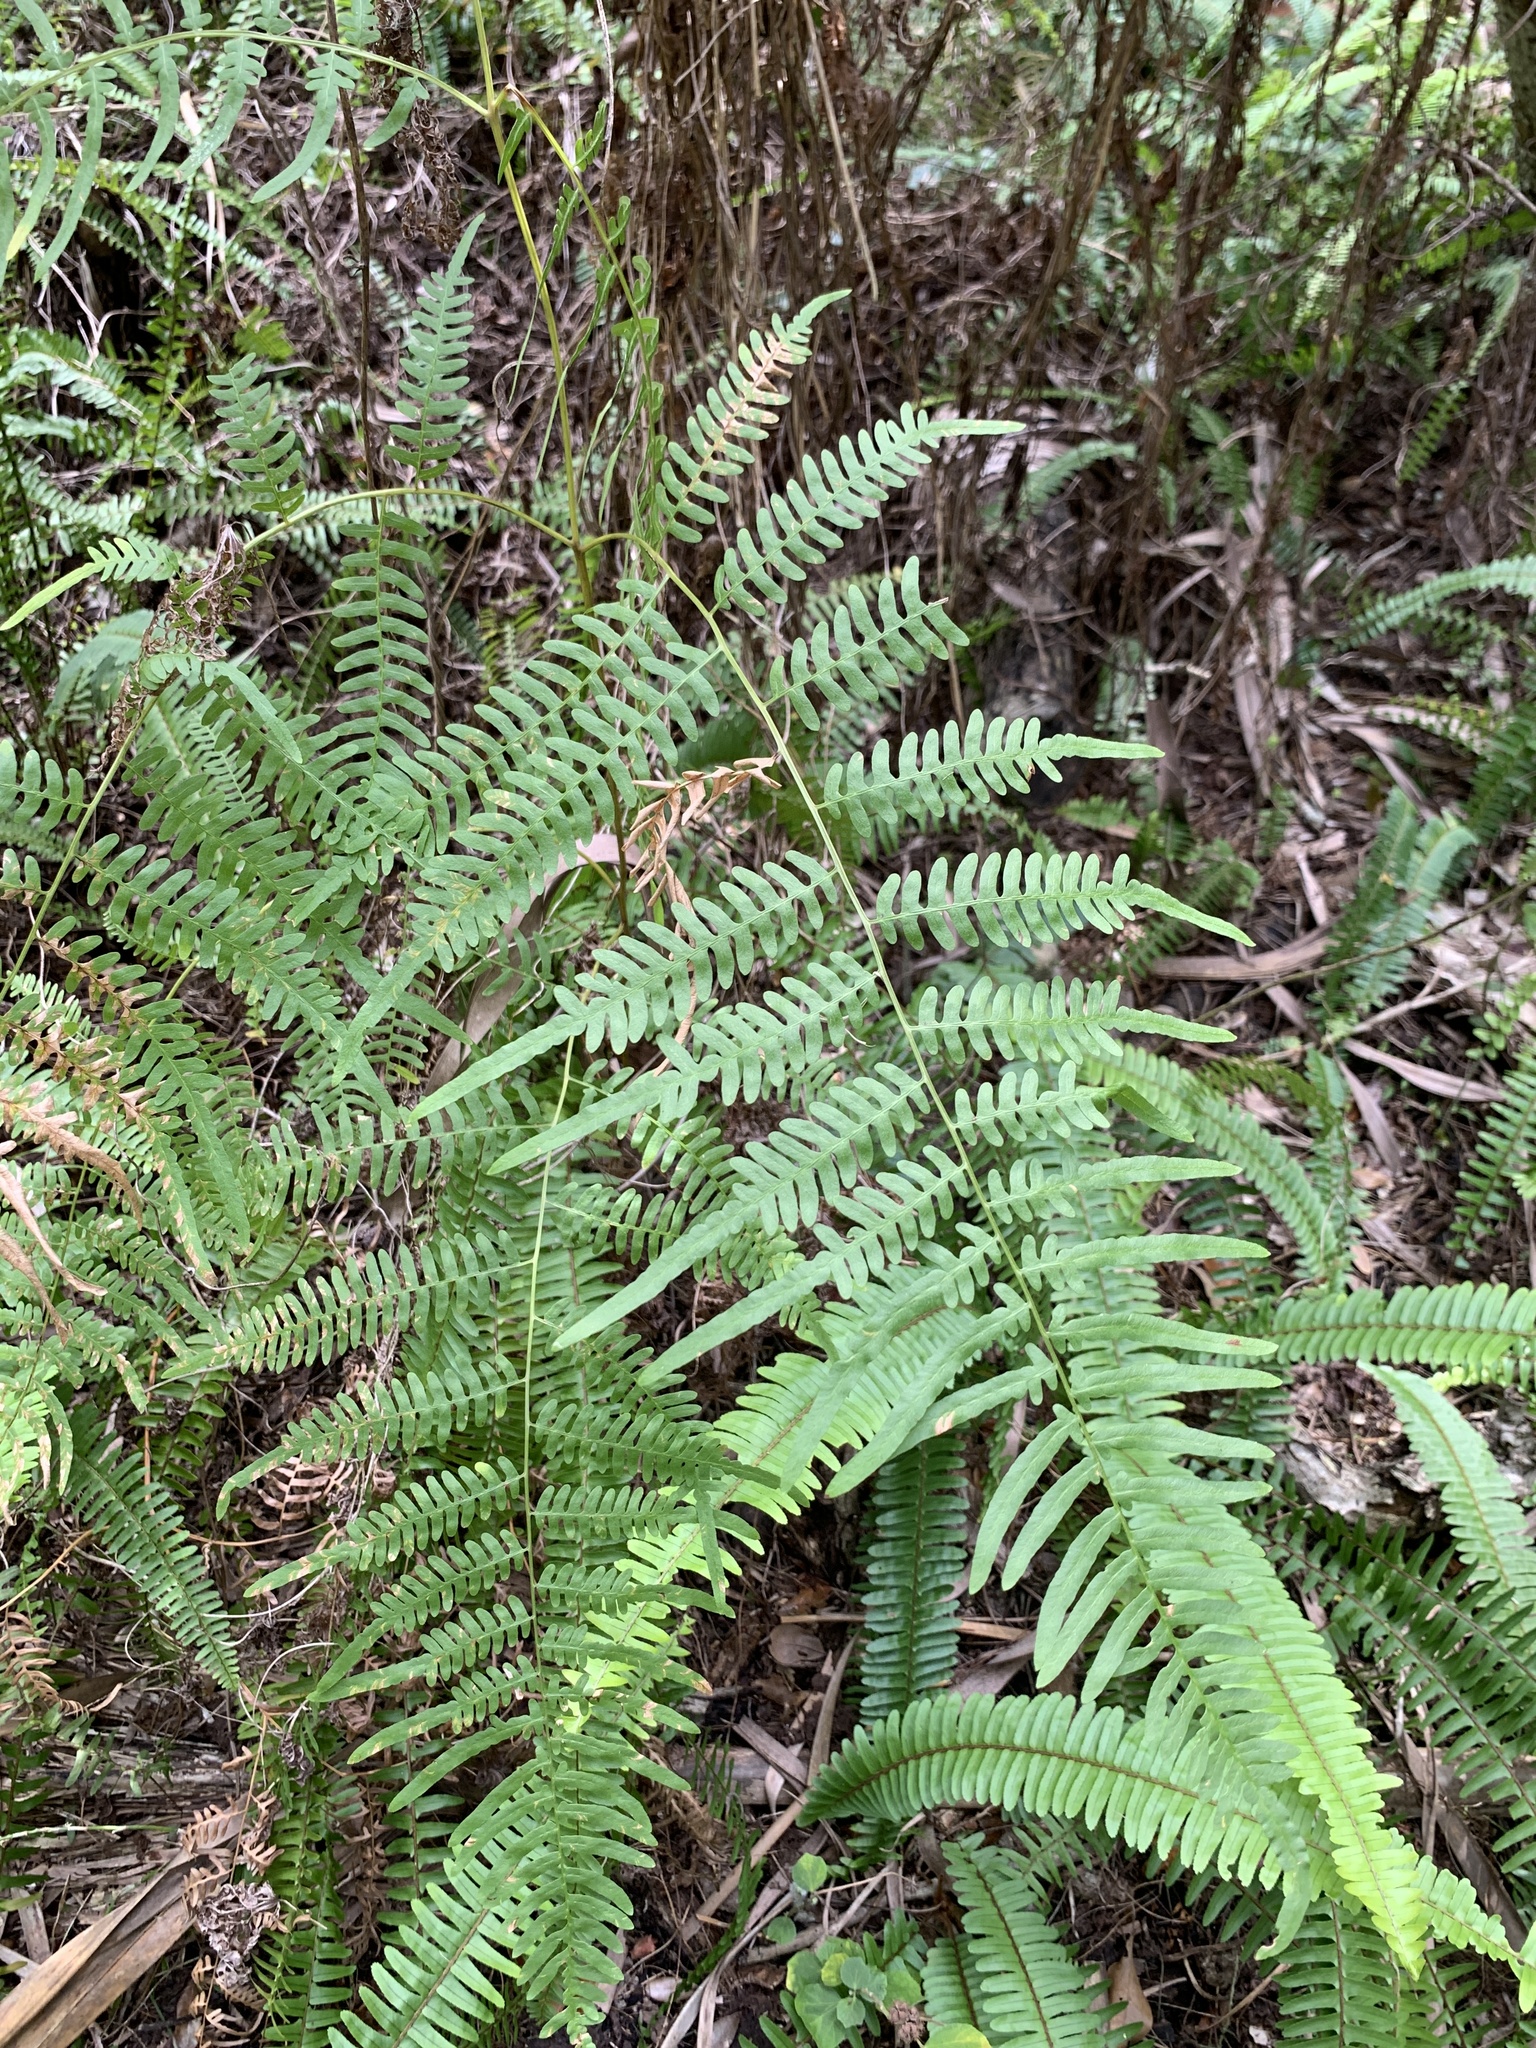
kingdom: Plantae
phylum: Tracheophyta
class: Polypodiopsida
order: Polypodiales
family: Dennstaedtiaceae
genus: Pteridium
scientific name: Pteridium caudatum
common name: Southern bracken fern
